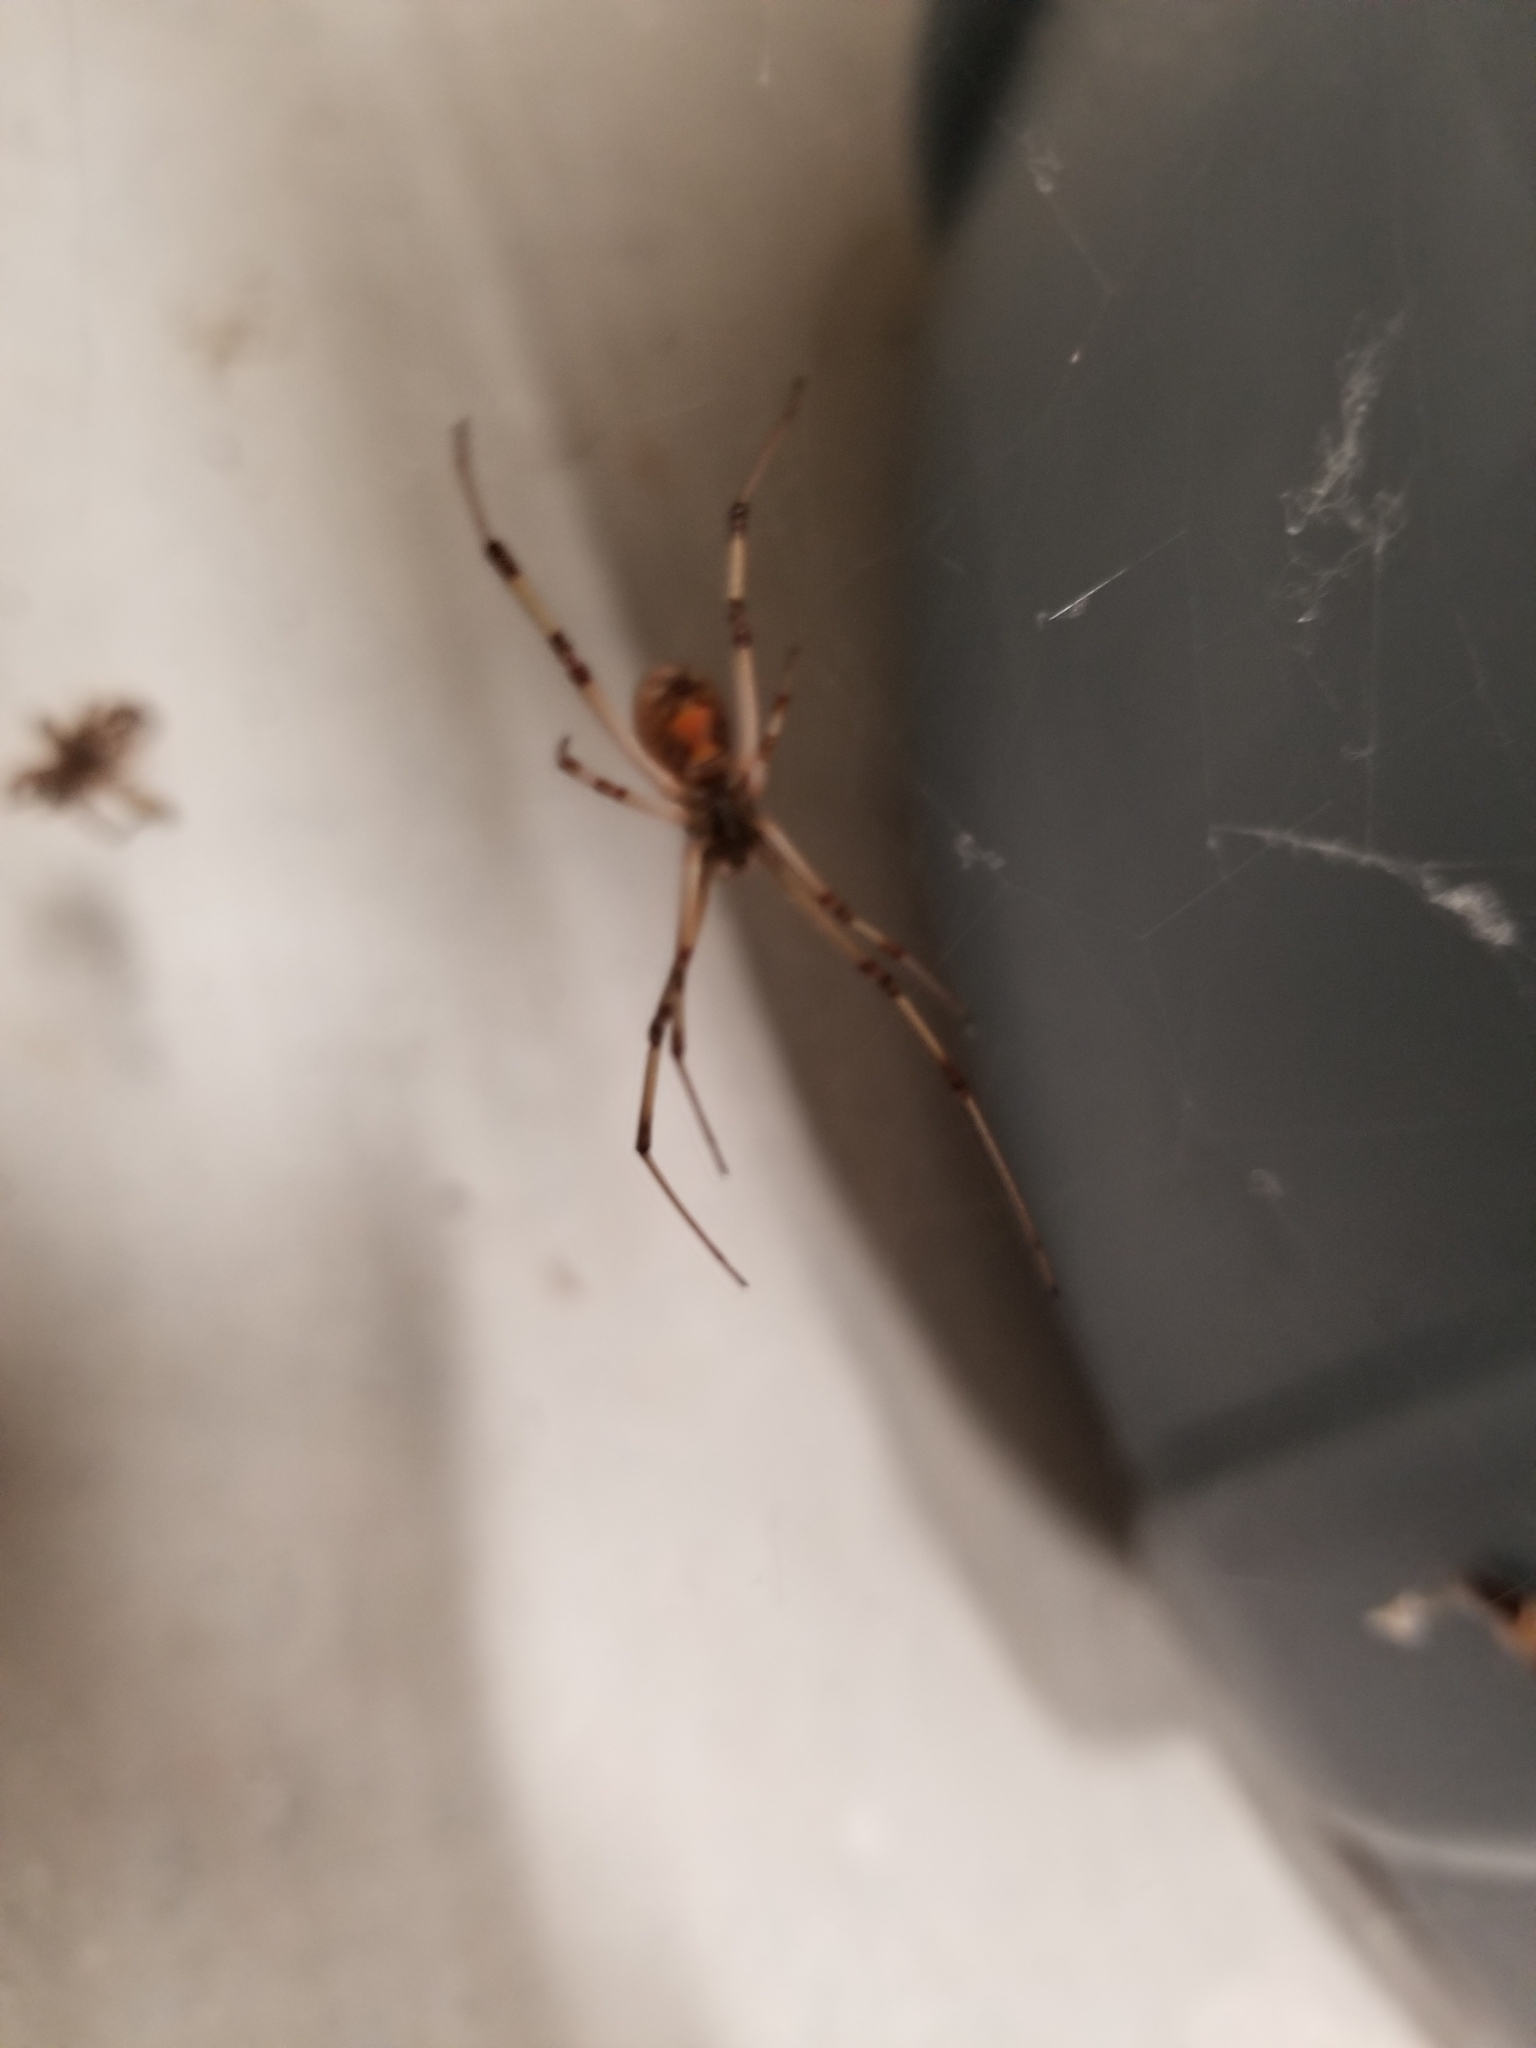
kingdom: Animalia
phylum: Arthropoda
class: Arachnida
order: Araneae
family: Theridiidae
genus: Latrodectus
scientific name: Latrodectus geometricus
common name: Brown widow spider
